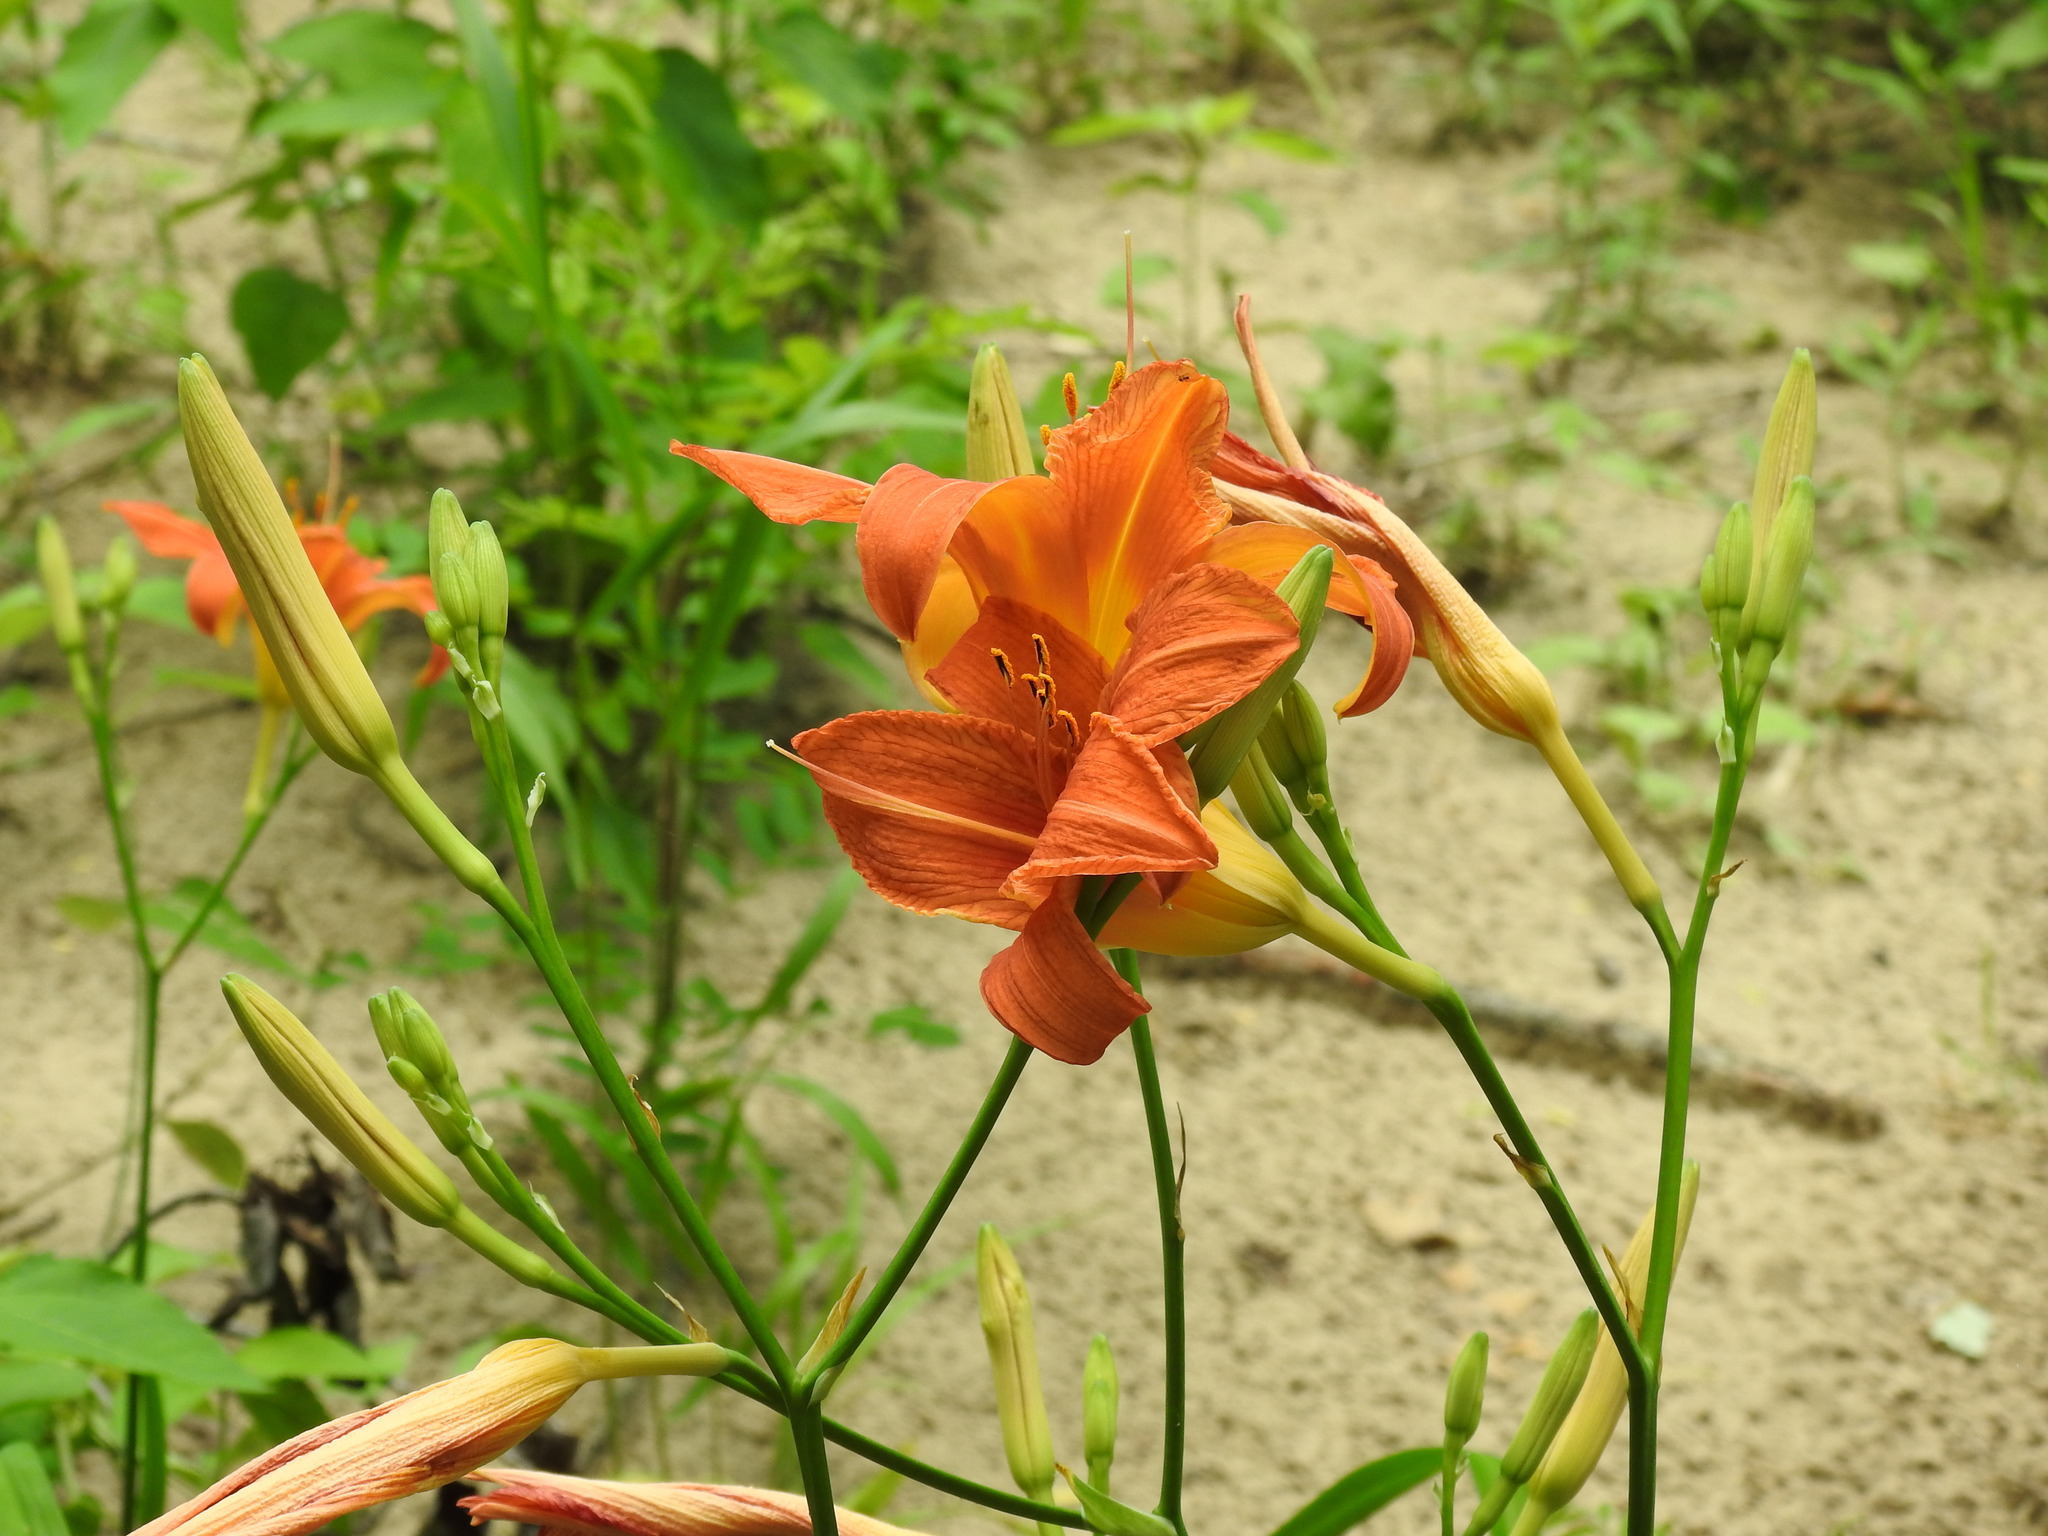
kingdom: Plantae
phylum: Tracheophyta
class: Liliopsida
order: Asparagales
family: Asphodelaceae
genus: Hemerocallis
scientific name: Hemerocallis fulva
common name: Orange day-lily
